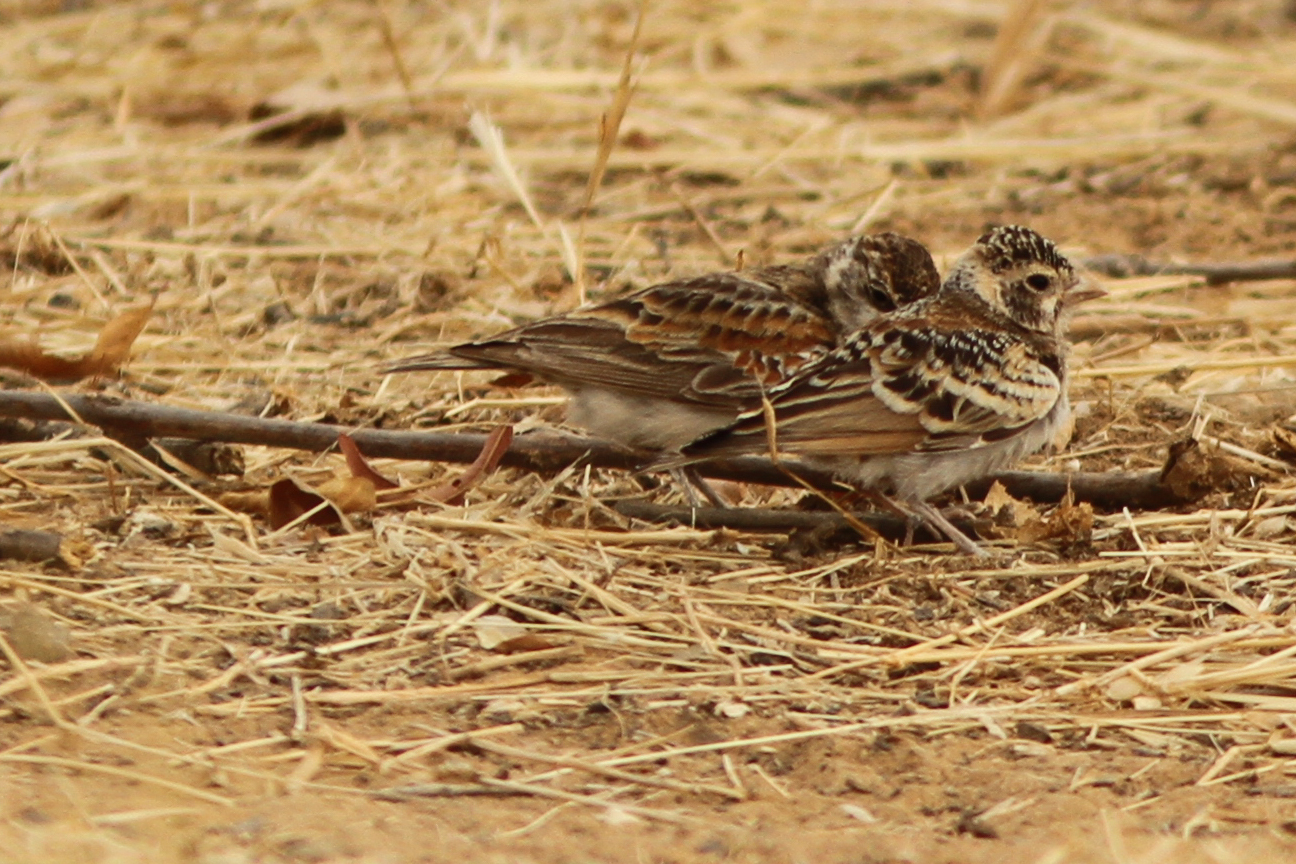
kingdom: Animalia
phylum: Chordata
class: Aves
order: Passeriformes
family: Alaudidae
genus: Eremopterix
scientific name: Eremopterix leucotis
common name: Chestnut-backed sparrow-lark
